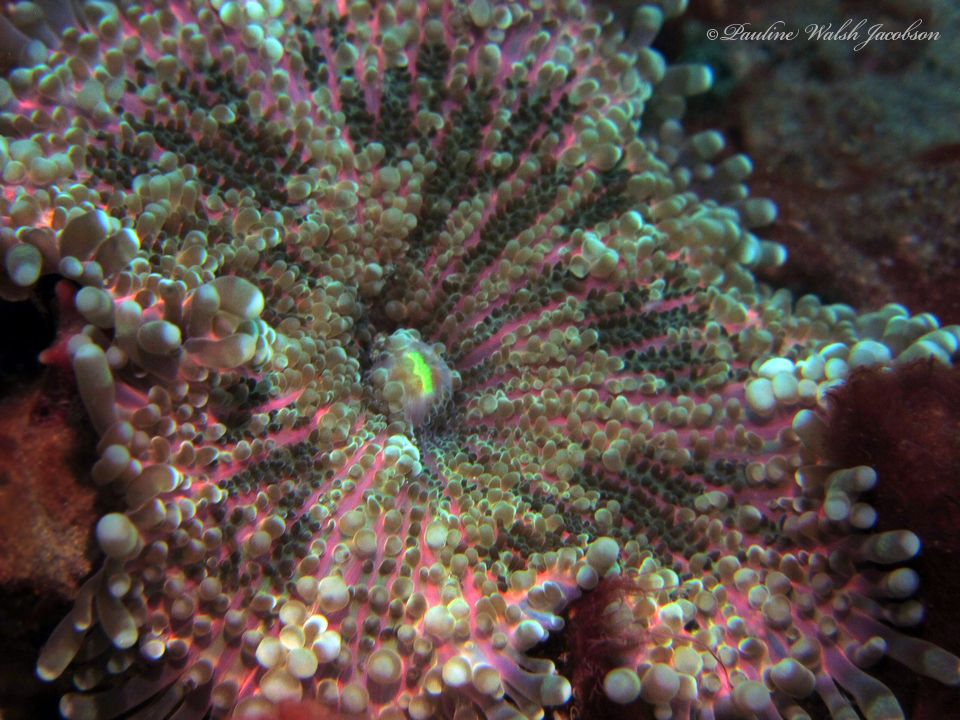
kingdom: Animalia
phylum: Cnidaria
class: Anthozoa
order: Corallimorpharia
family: Ricordeidae
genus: Ricordea
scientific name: Ricordea yuma
